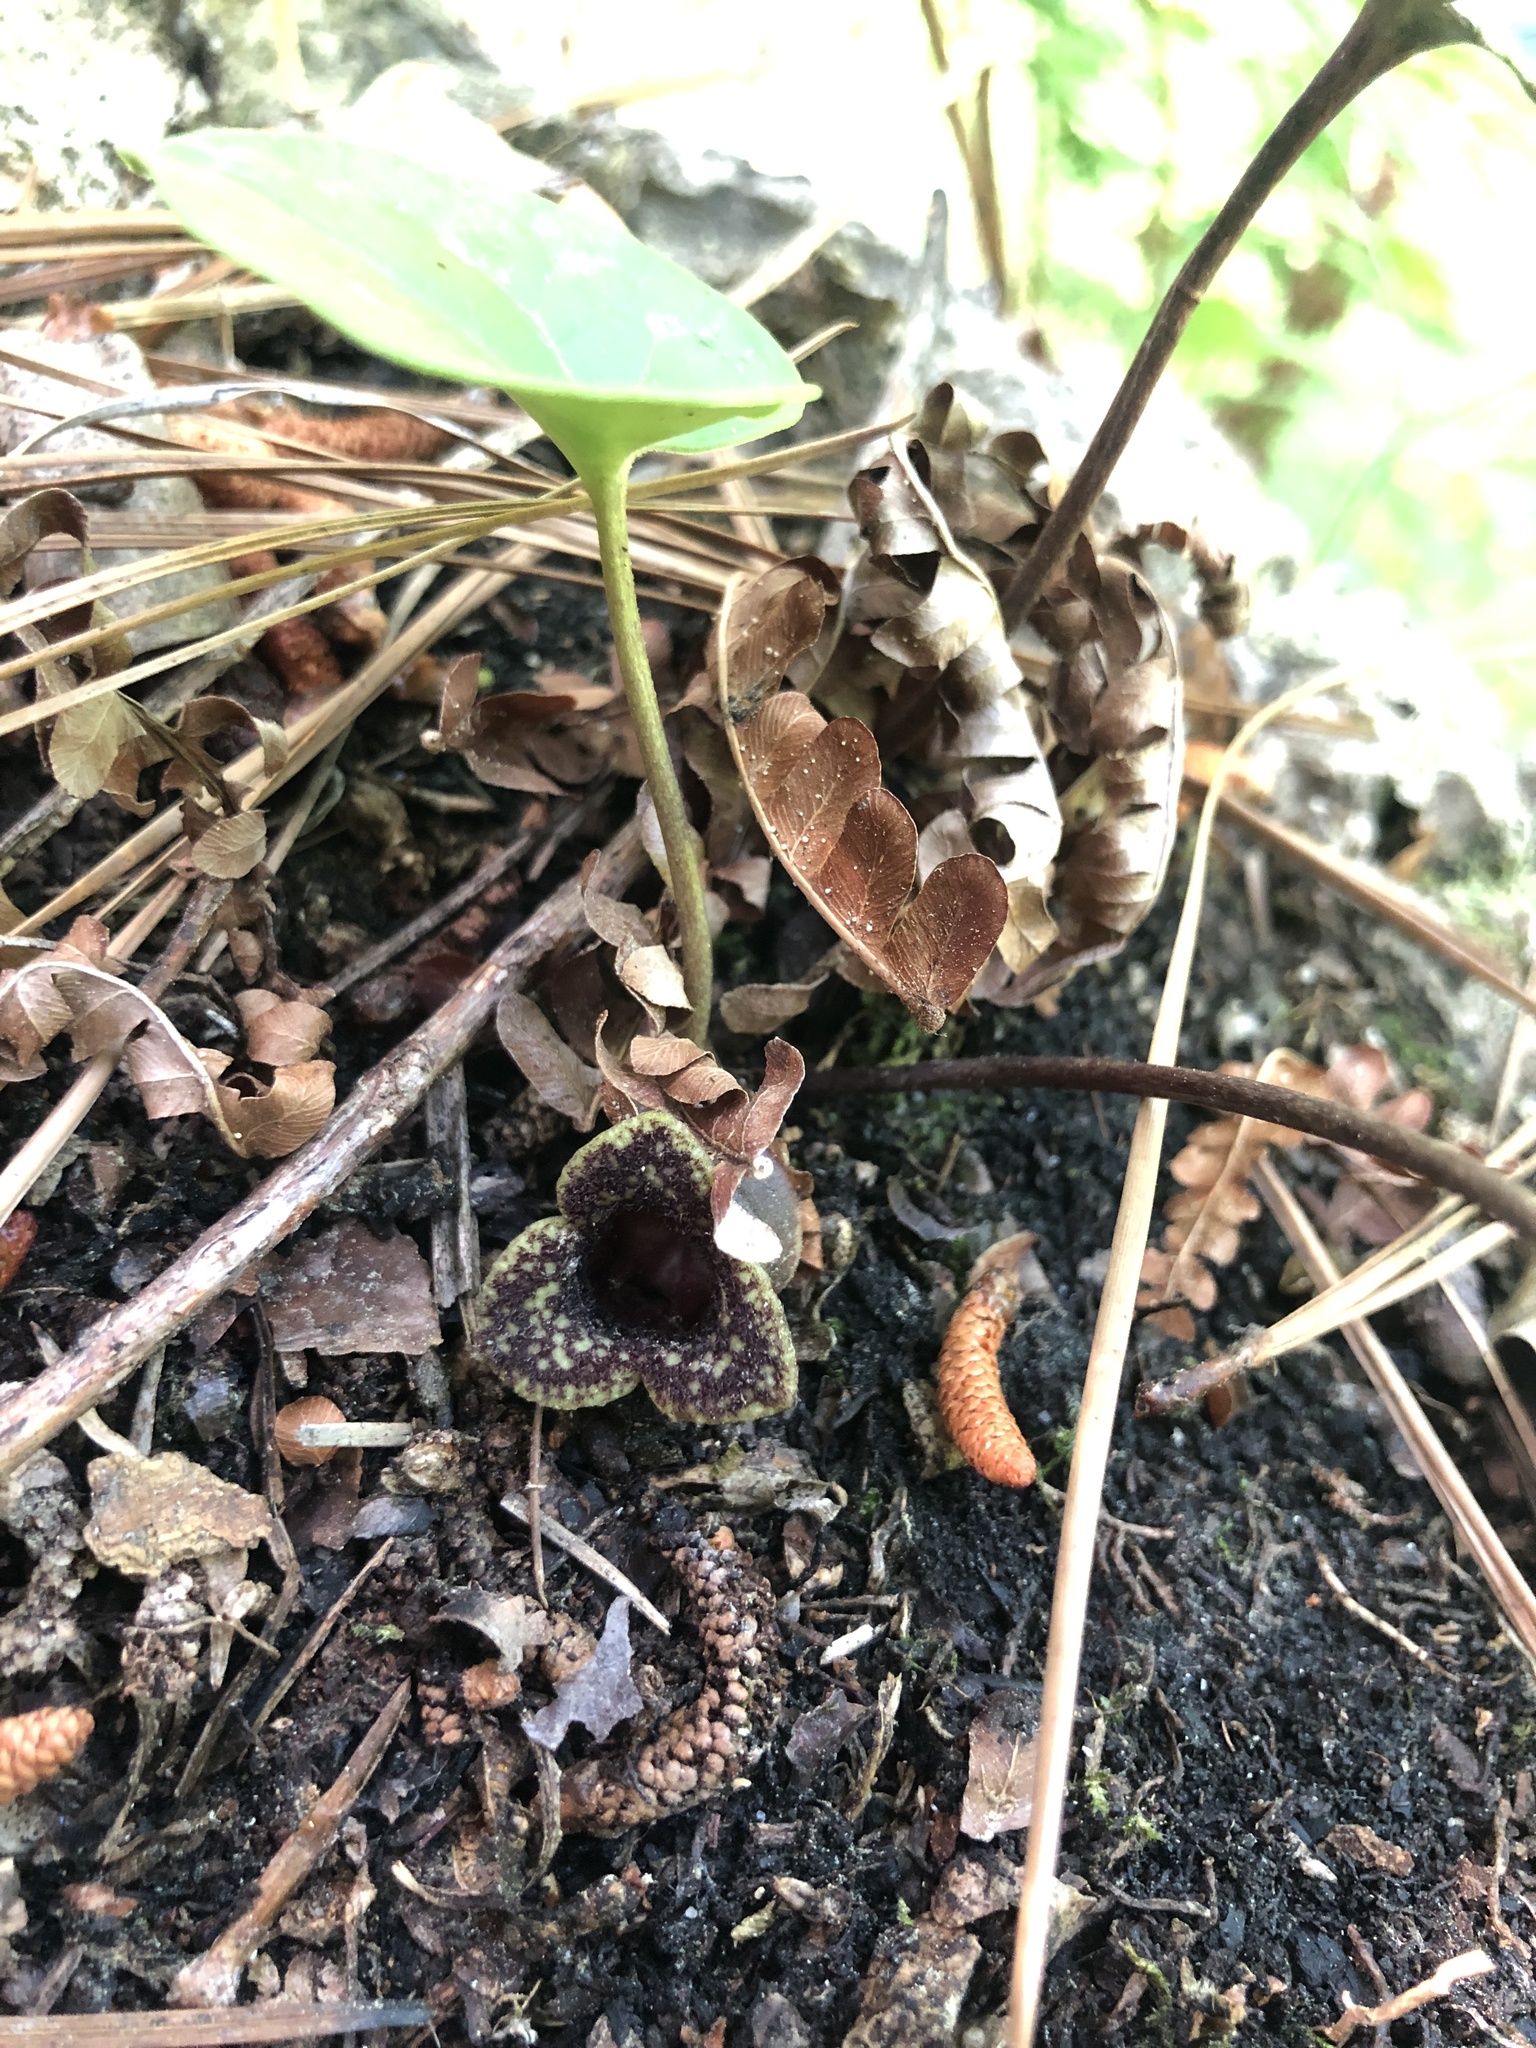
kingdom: Plantae
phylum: Tracheophyta
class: Magnoliopsida
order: Piperales
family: Aristolochiaceae
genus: Hexastylis
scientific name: Hexastylis sorriei
